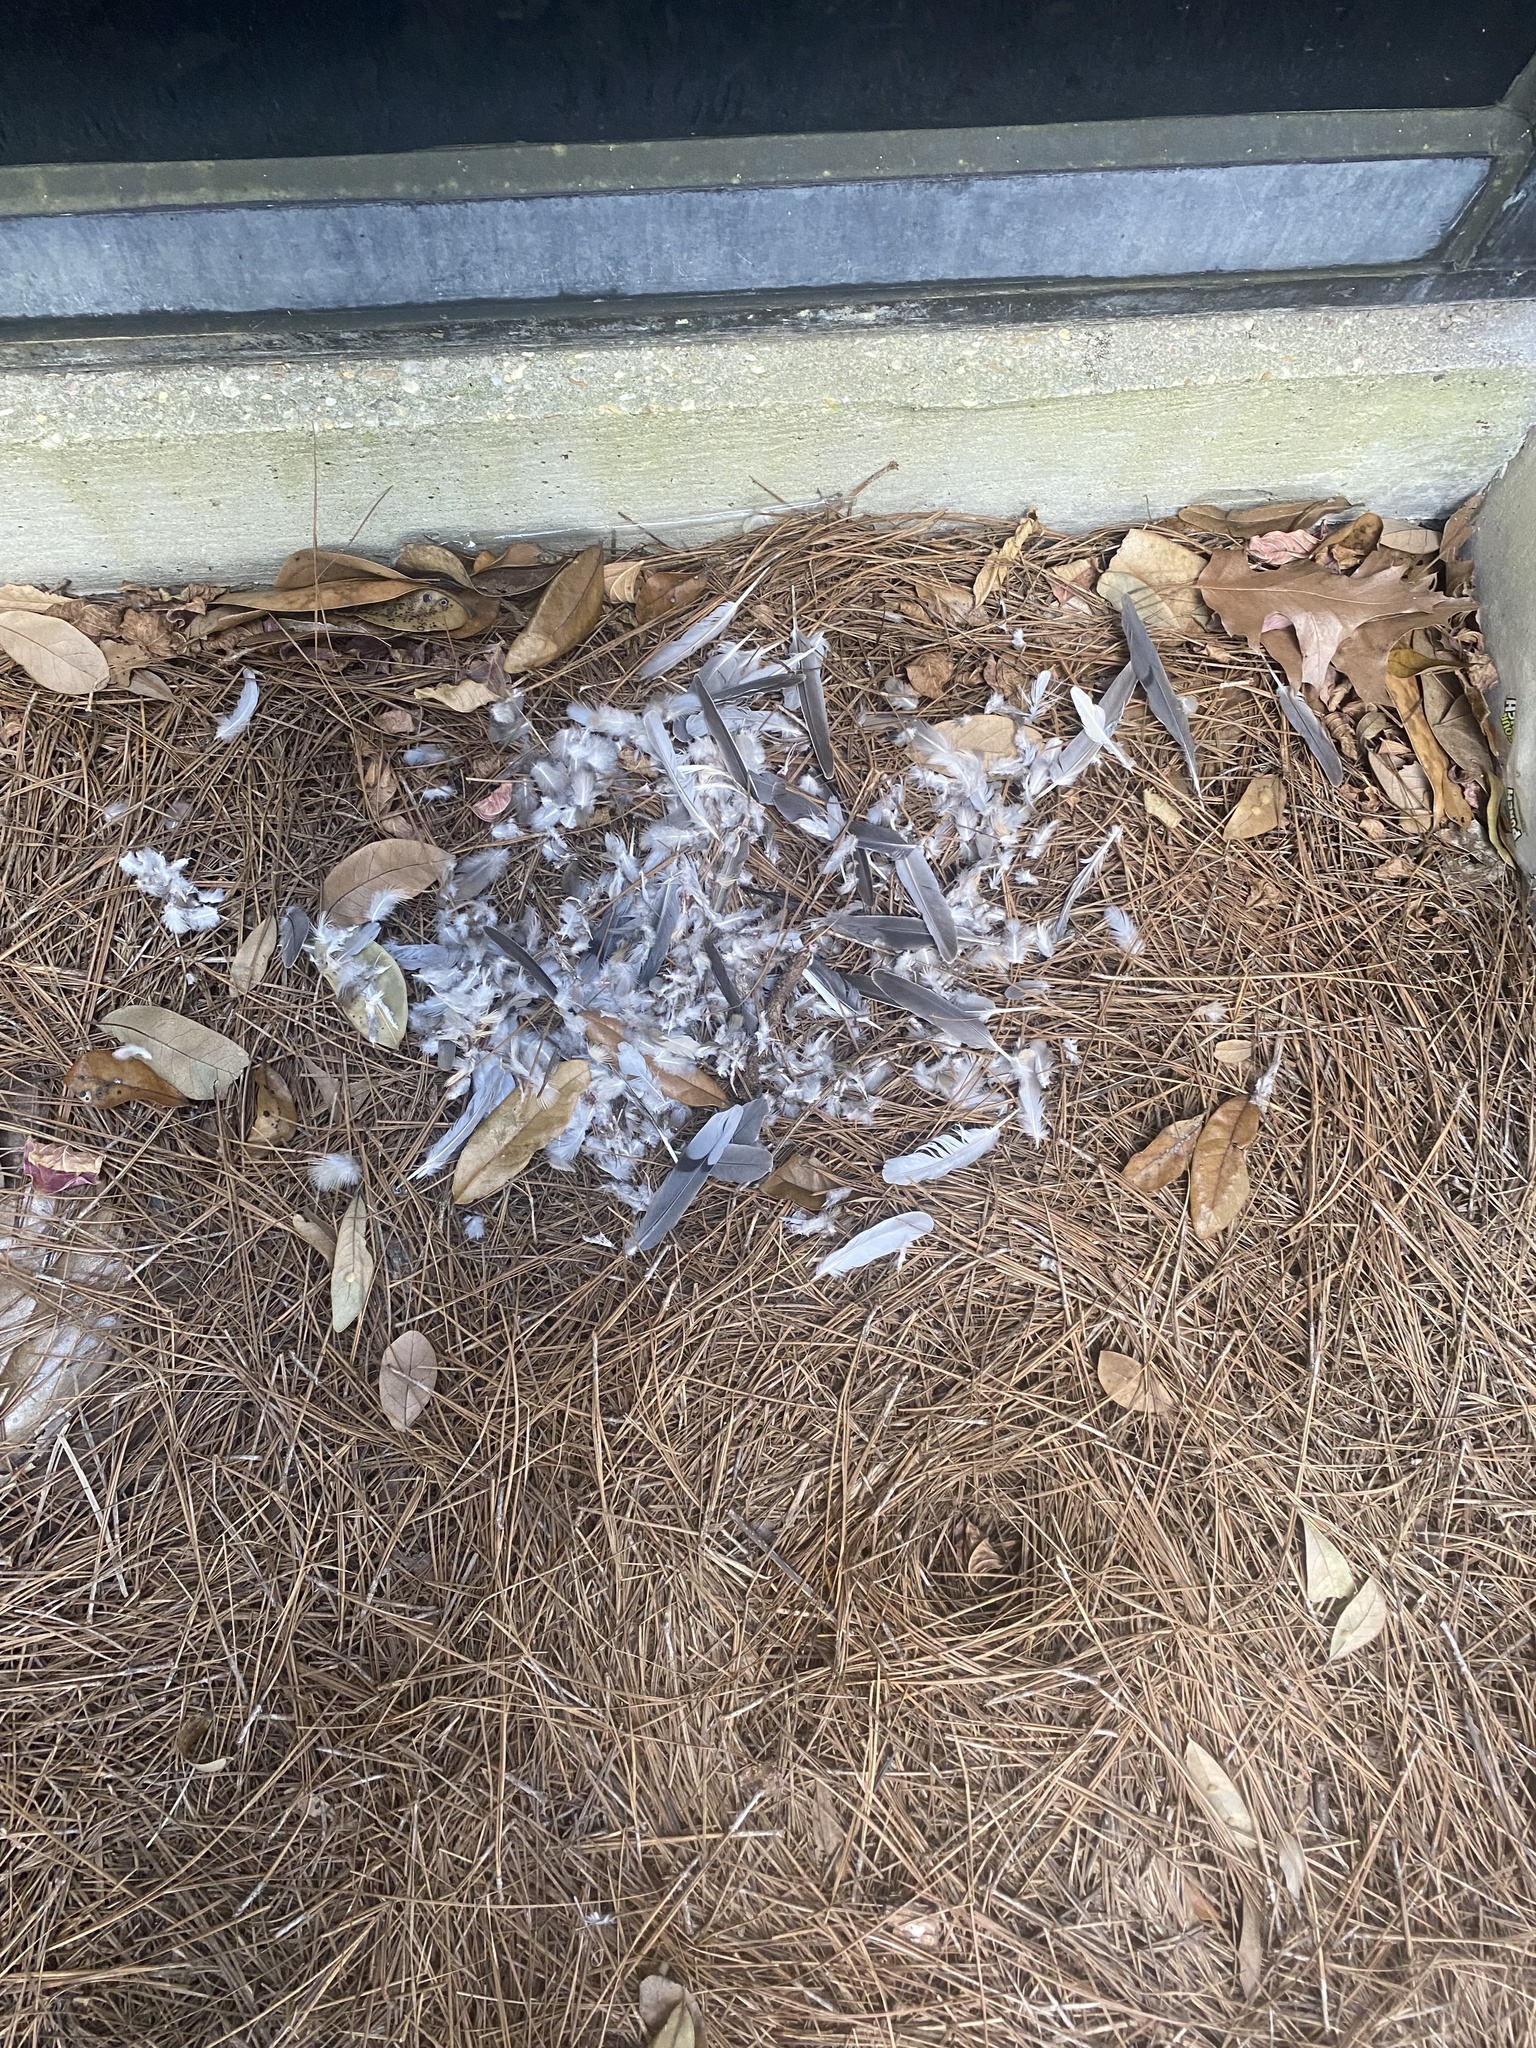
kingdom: Animalia
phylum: Chordata
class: Aves
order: Columbiformes
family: Columbidae
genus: Zenaida
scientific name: Zenaida macroura
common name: Mourning dove
